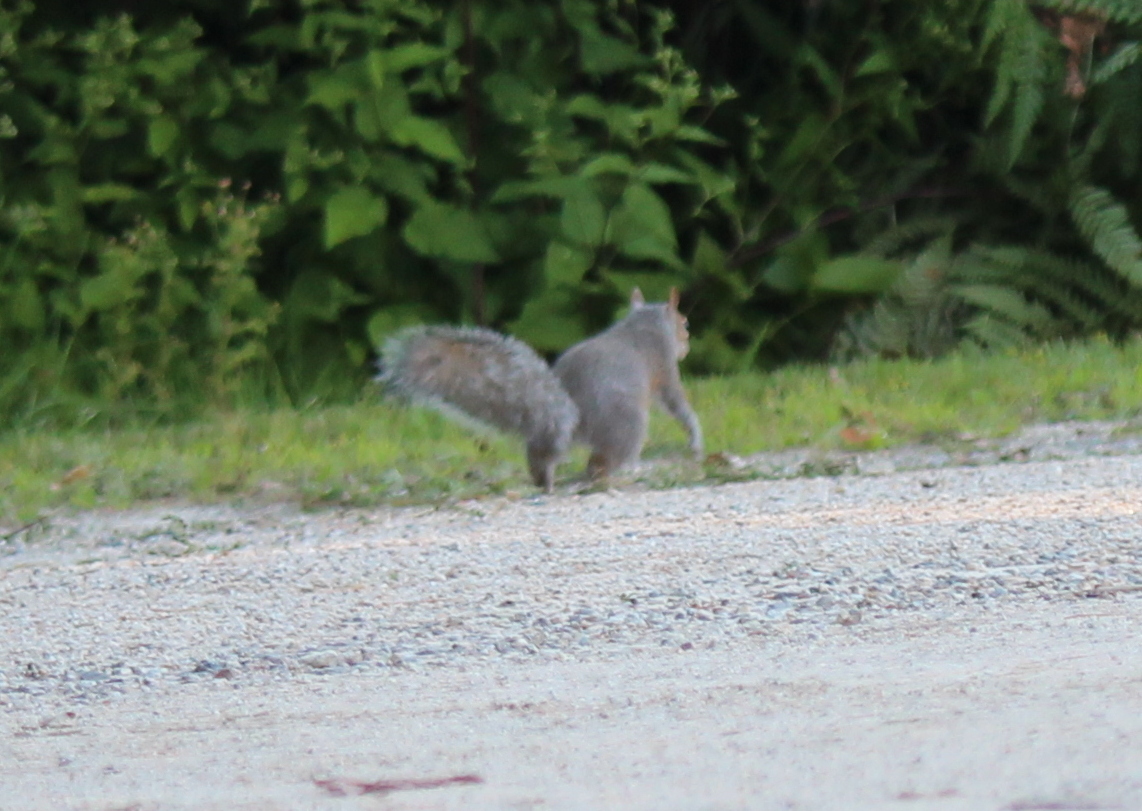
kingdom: Animalia
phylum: Chordata
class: Mammalia
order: Rodentia
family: Sciuridae
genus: Sciurus
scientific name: Sciurus carolinensis
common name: Eastern gray squirrel
